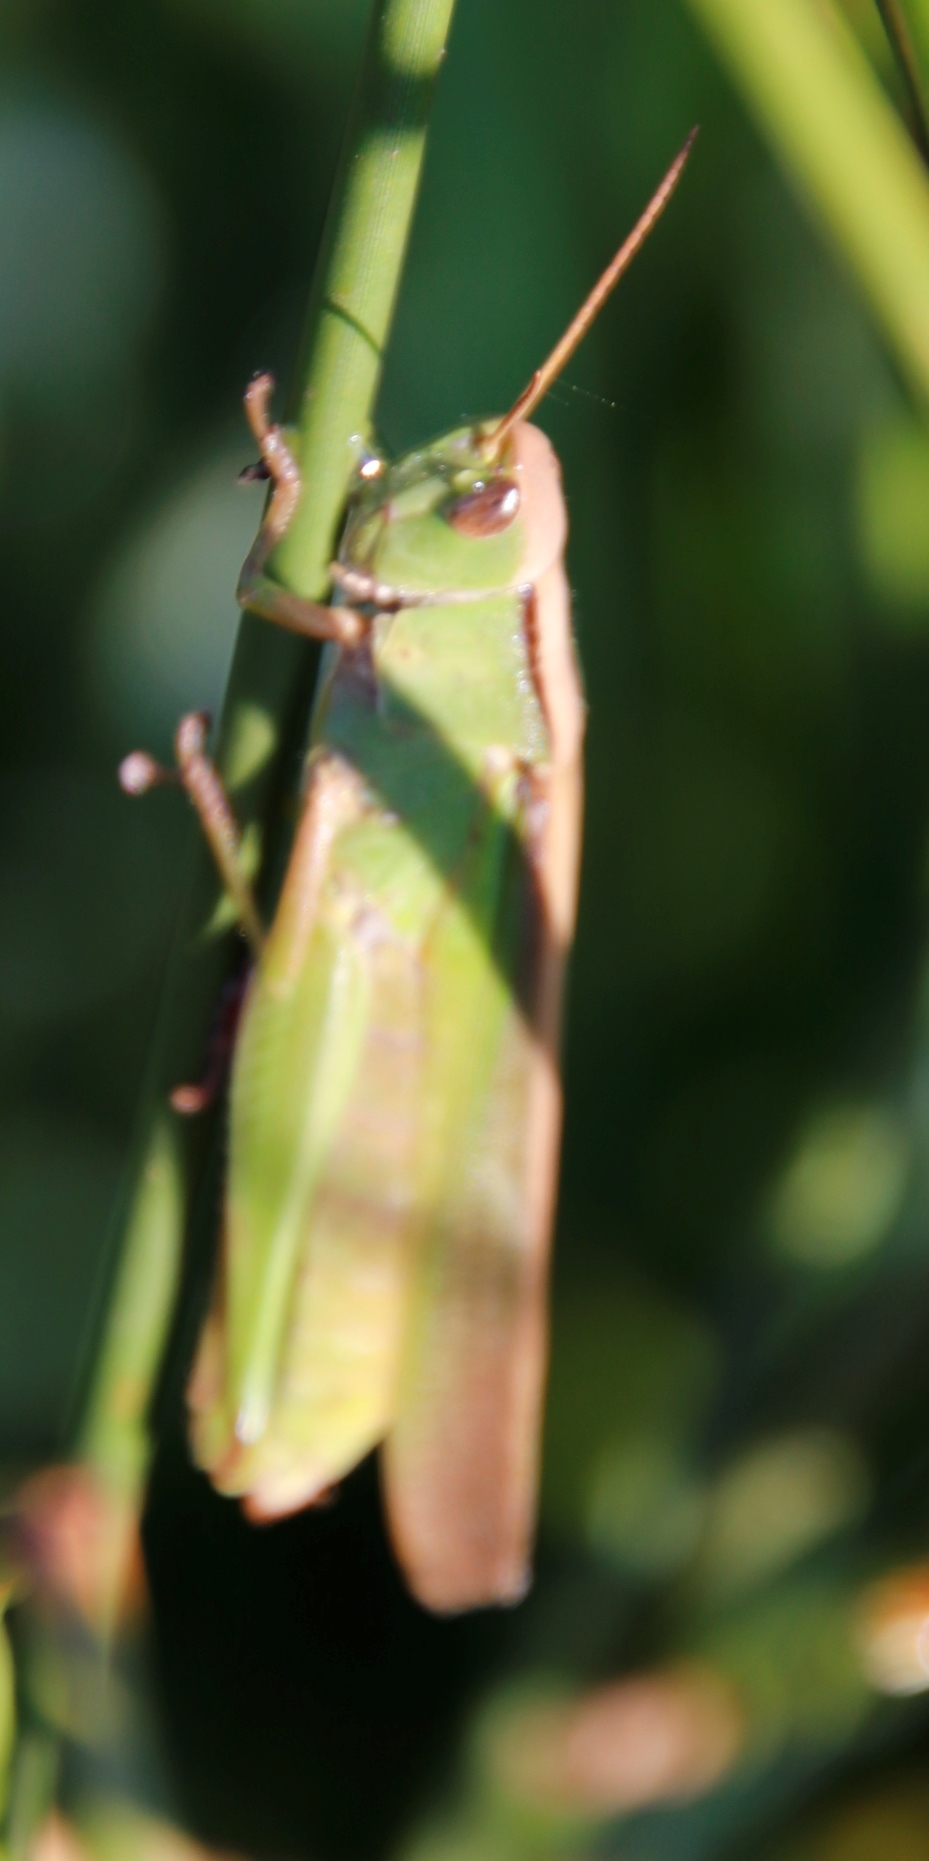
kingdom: Animalia
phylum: Arthropoda
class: Insecta
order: Orthoptera
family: Acrididae
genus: Paracinema
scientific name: Paracinema tricolor
